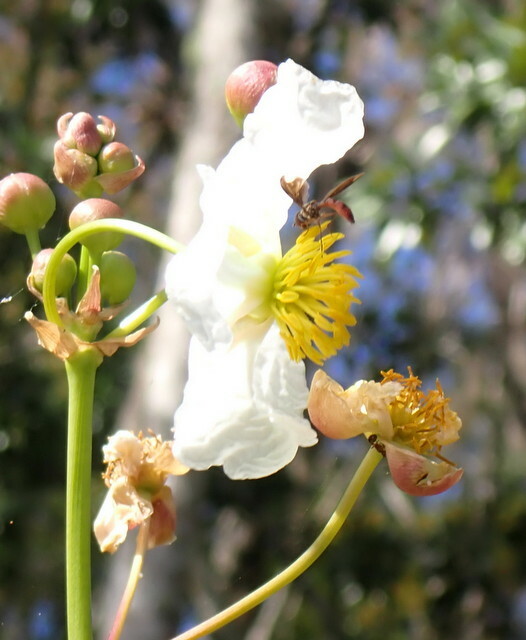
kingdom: Animalia
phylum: Arthropoda
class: Insecta
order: Diptera
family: Syrphidae
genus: Ocyptamus
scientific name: Ocyptamus fuscipennis
